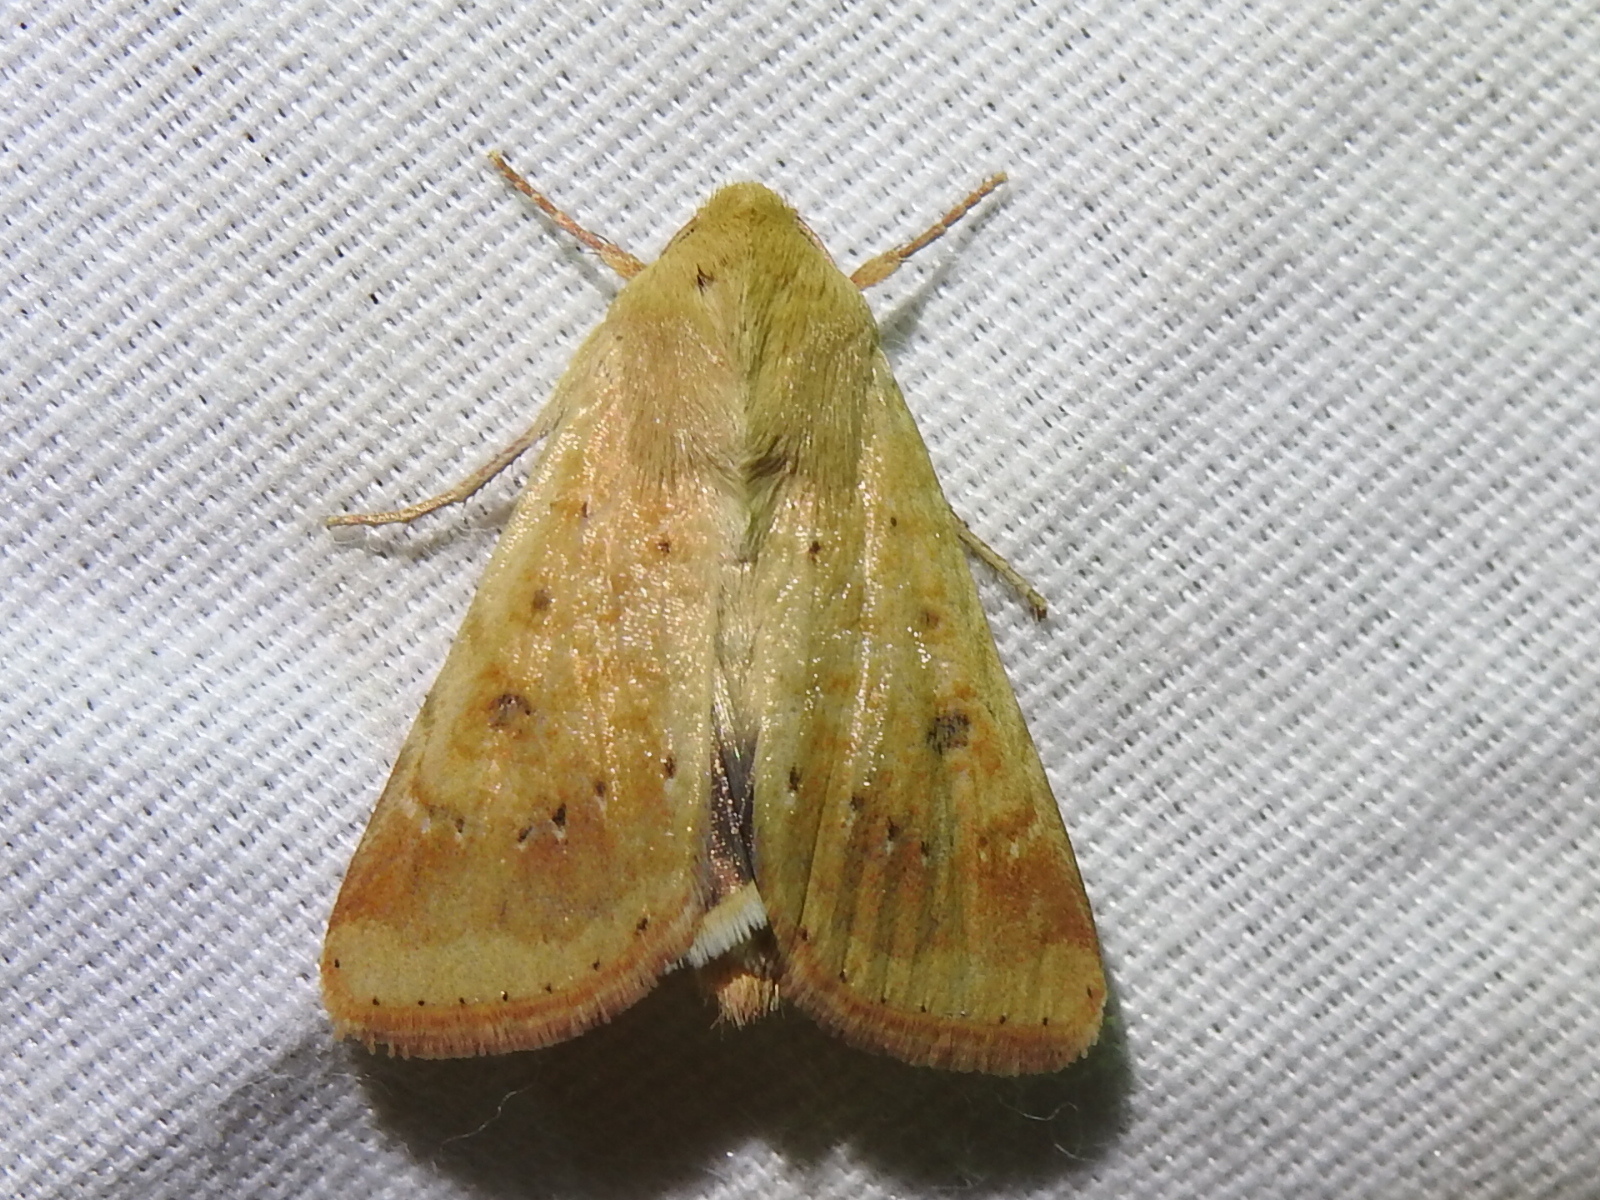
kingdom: Animalia
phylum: Arthropoda
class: Insecta
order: Lepidoptera
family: Noctuidae
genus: Helicoverpa
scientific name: Helicoverpa zea
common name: Bollworm
